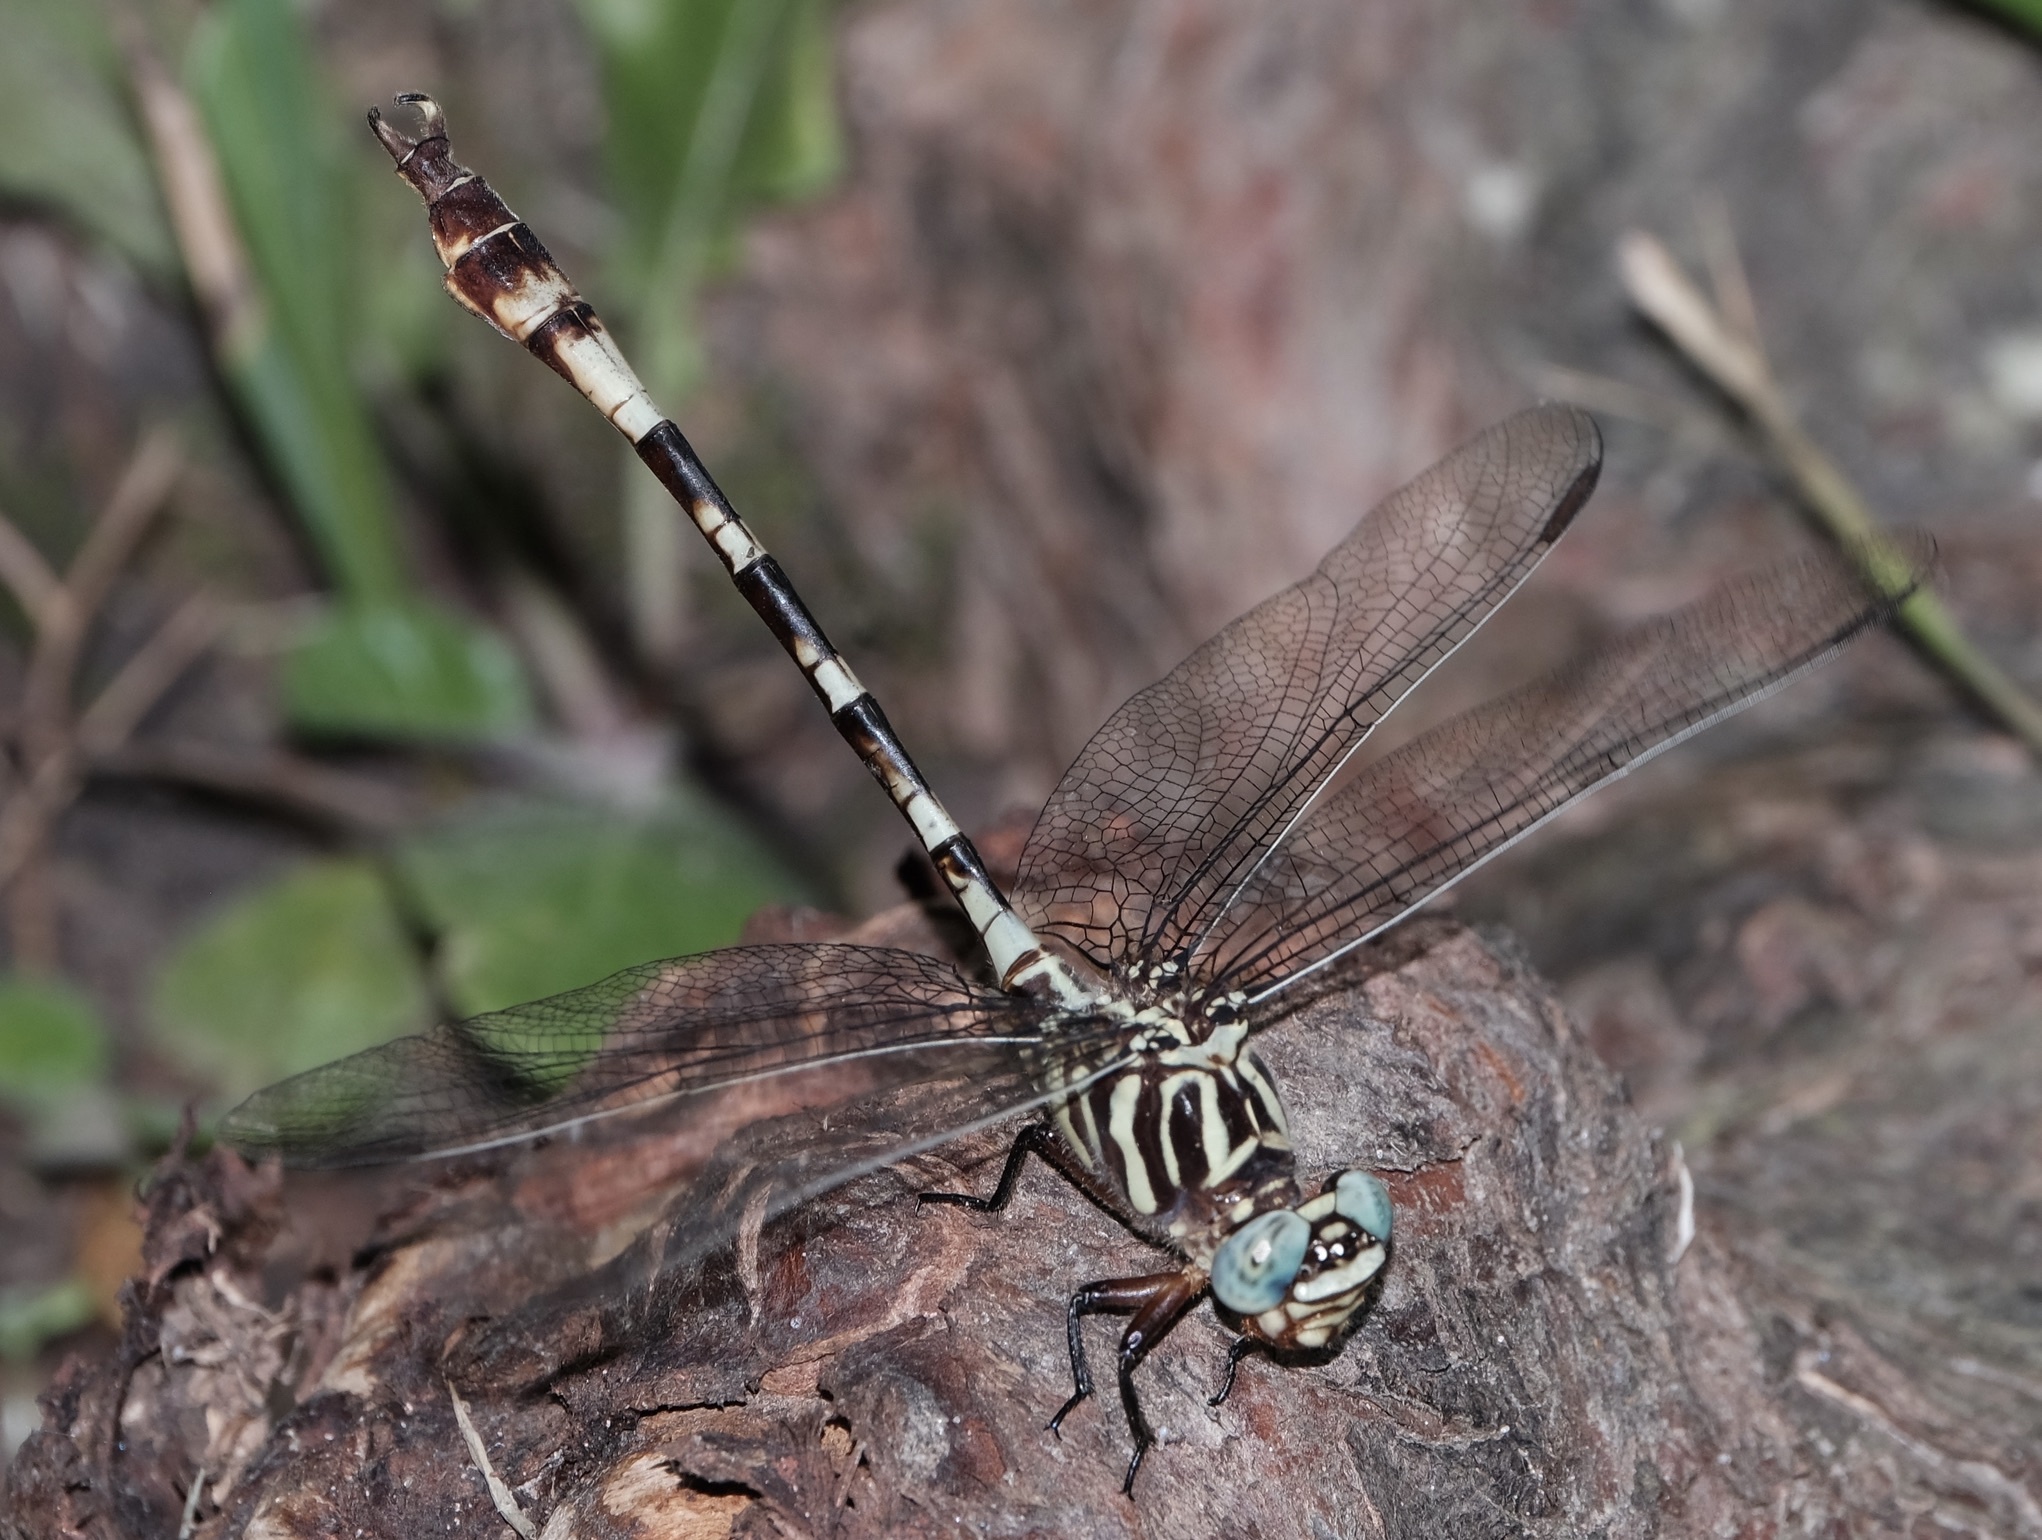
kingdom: Animalia
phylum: Arthropoda
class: Insecta
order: Odonata
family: Gomphidae
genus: Aphylla
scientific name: Aphylla angustifolia
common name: Broad-striped forceptail
